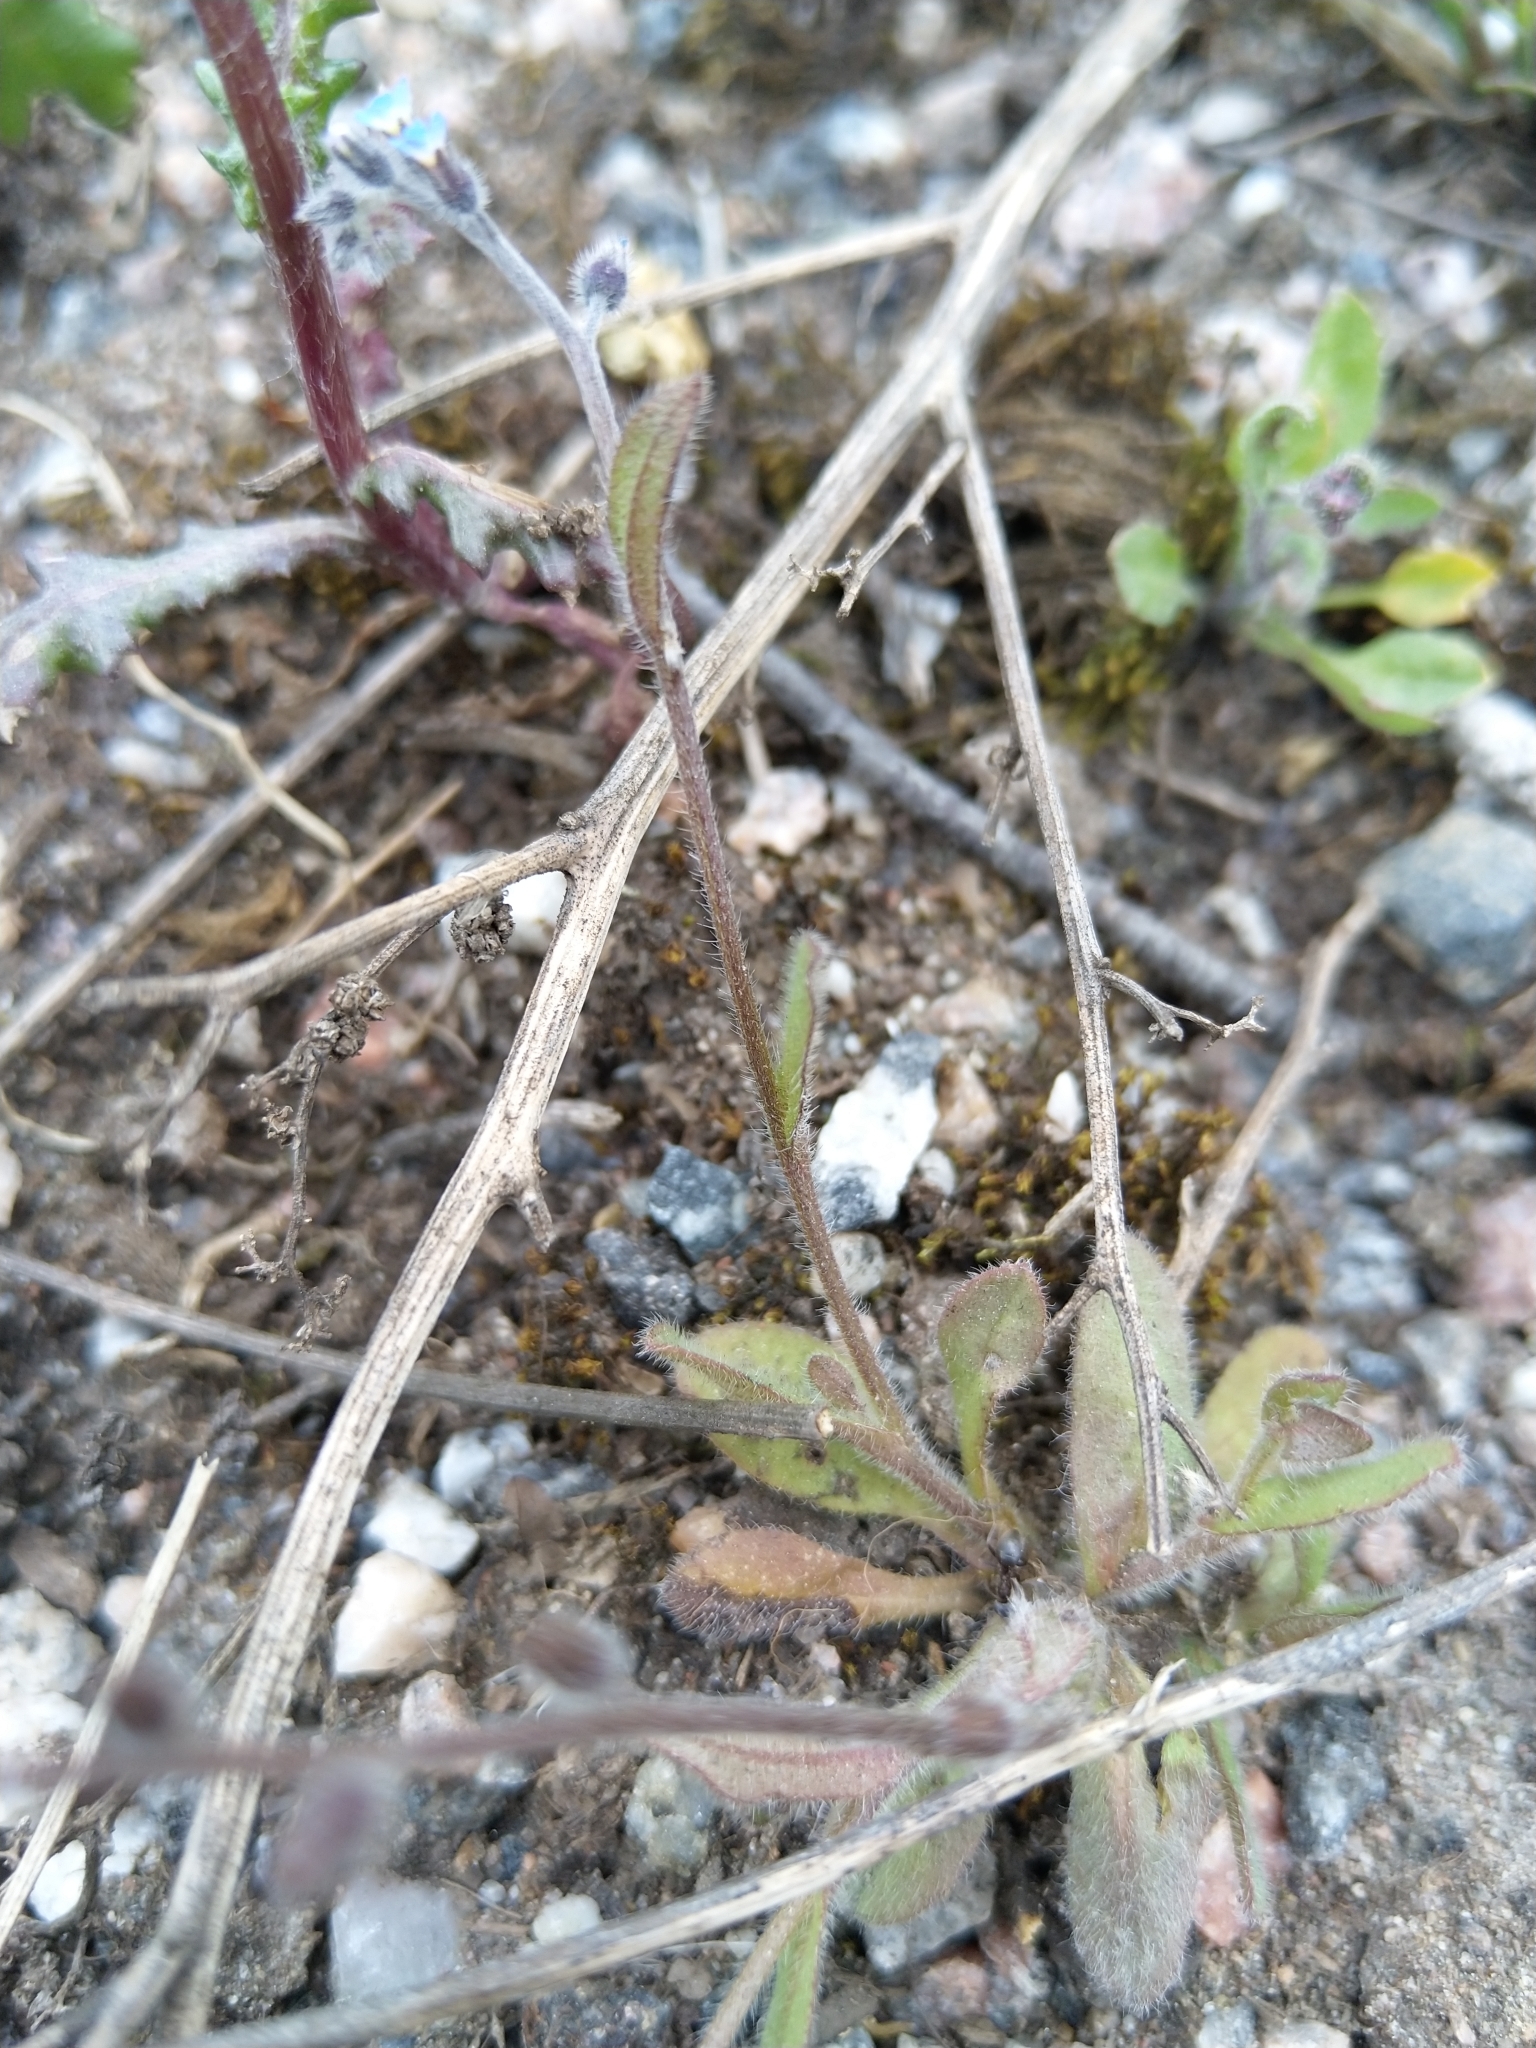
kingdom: Plantae
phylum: Tracheophyta
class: Magnoliopsida
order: Boraginales
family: Boraginaceae
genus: Myosotis
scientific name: Myosotis ramosissima
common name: Early forget-me-not
